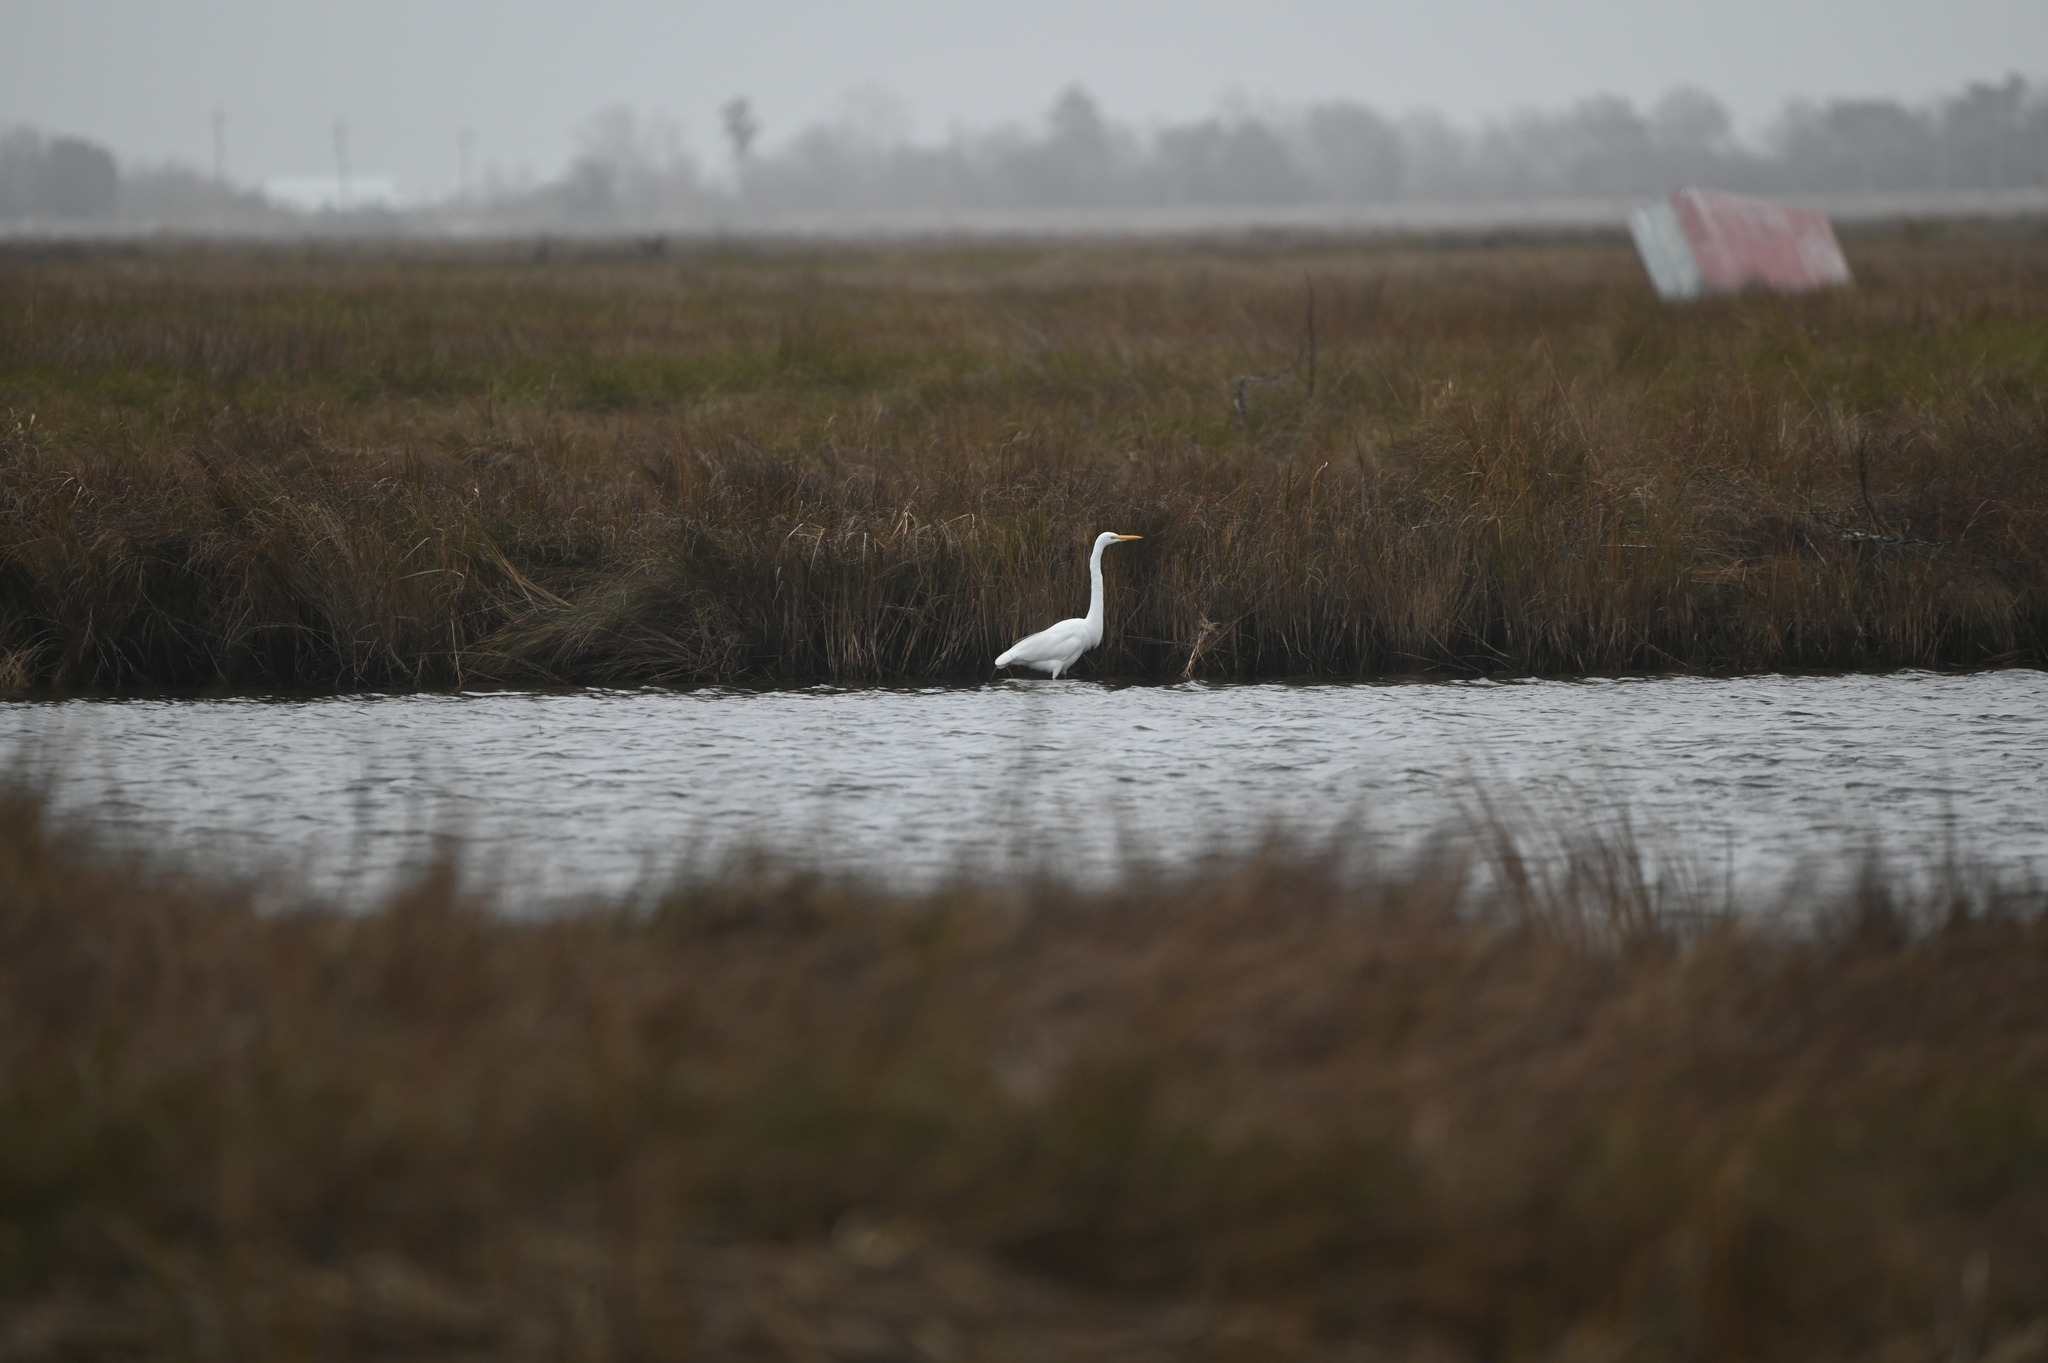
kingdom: Animalia
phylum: Chordata
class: Aves
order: Pelecaniformes
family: Ardeidae
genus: Ardea
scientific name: Ardea alba
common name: Great egret
